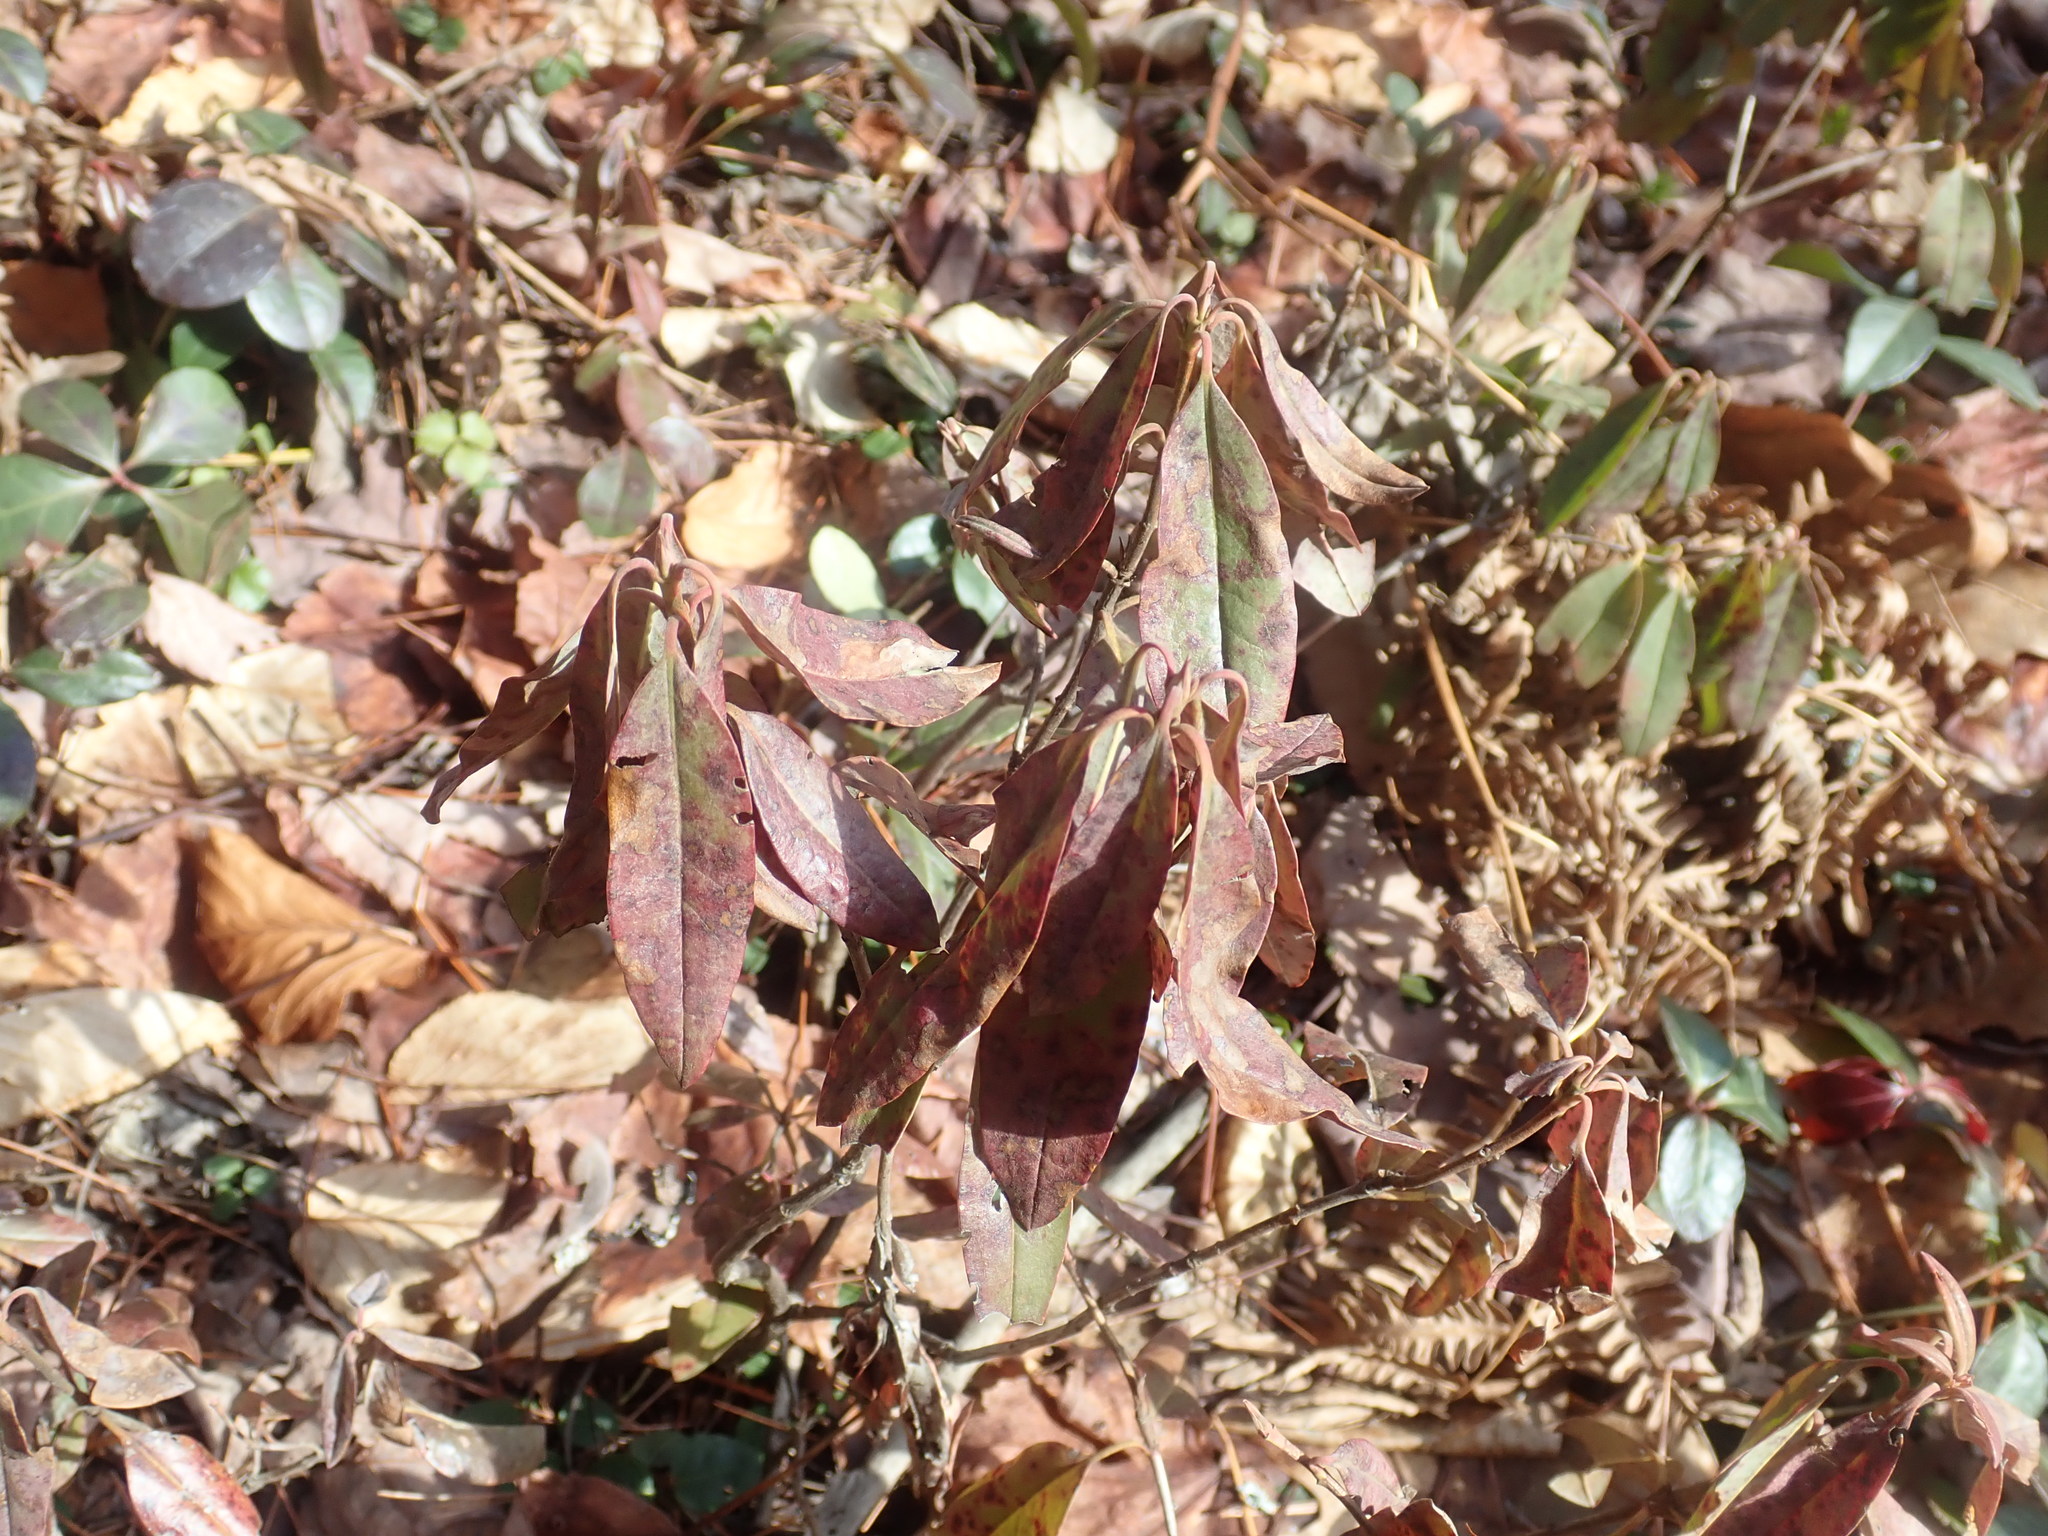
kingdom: Plantae
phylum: Tracheophyta
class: Magnoliopsida
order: Ericales
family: Ericaceae
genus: Kalmia
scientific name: Kalmia angustifolia
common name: Sheep-laurel
